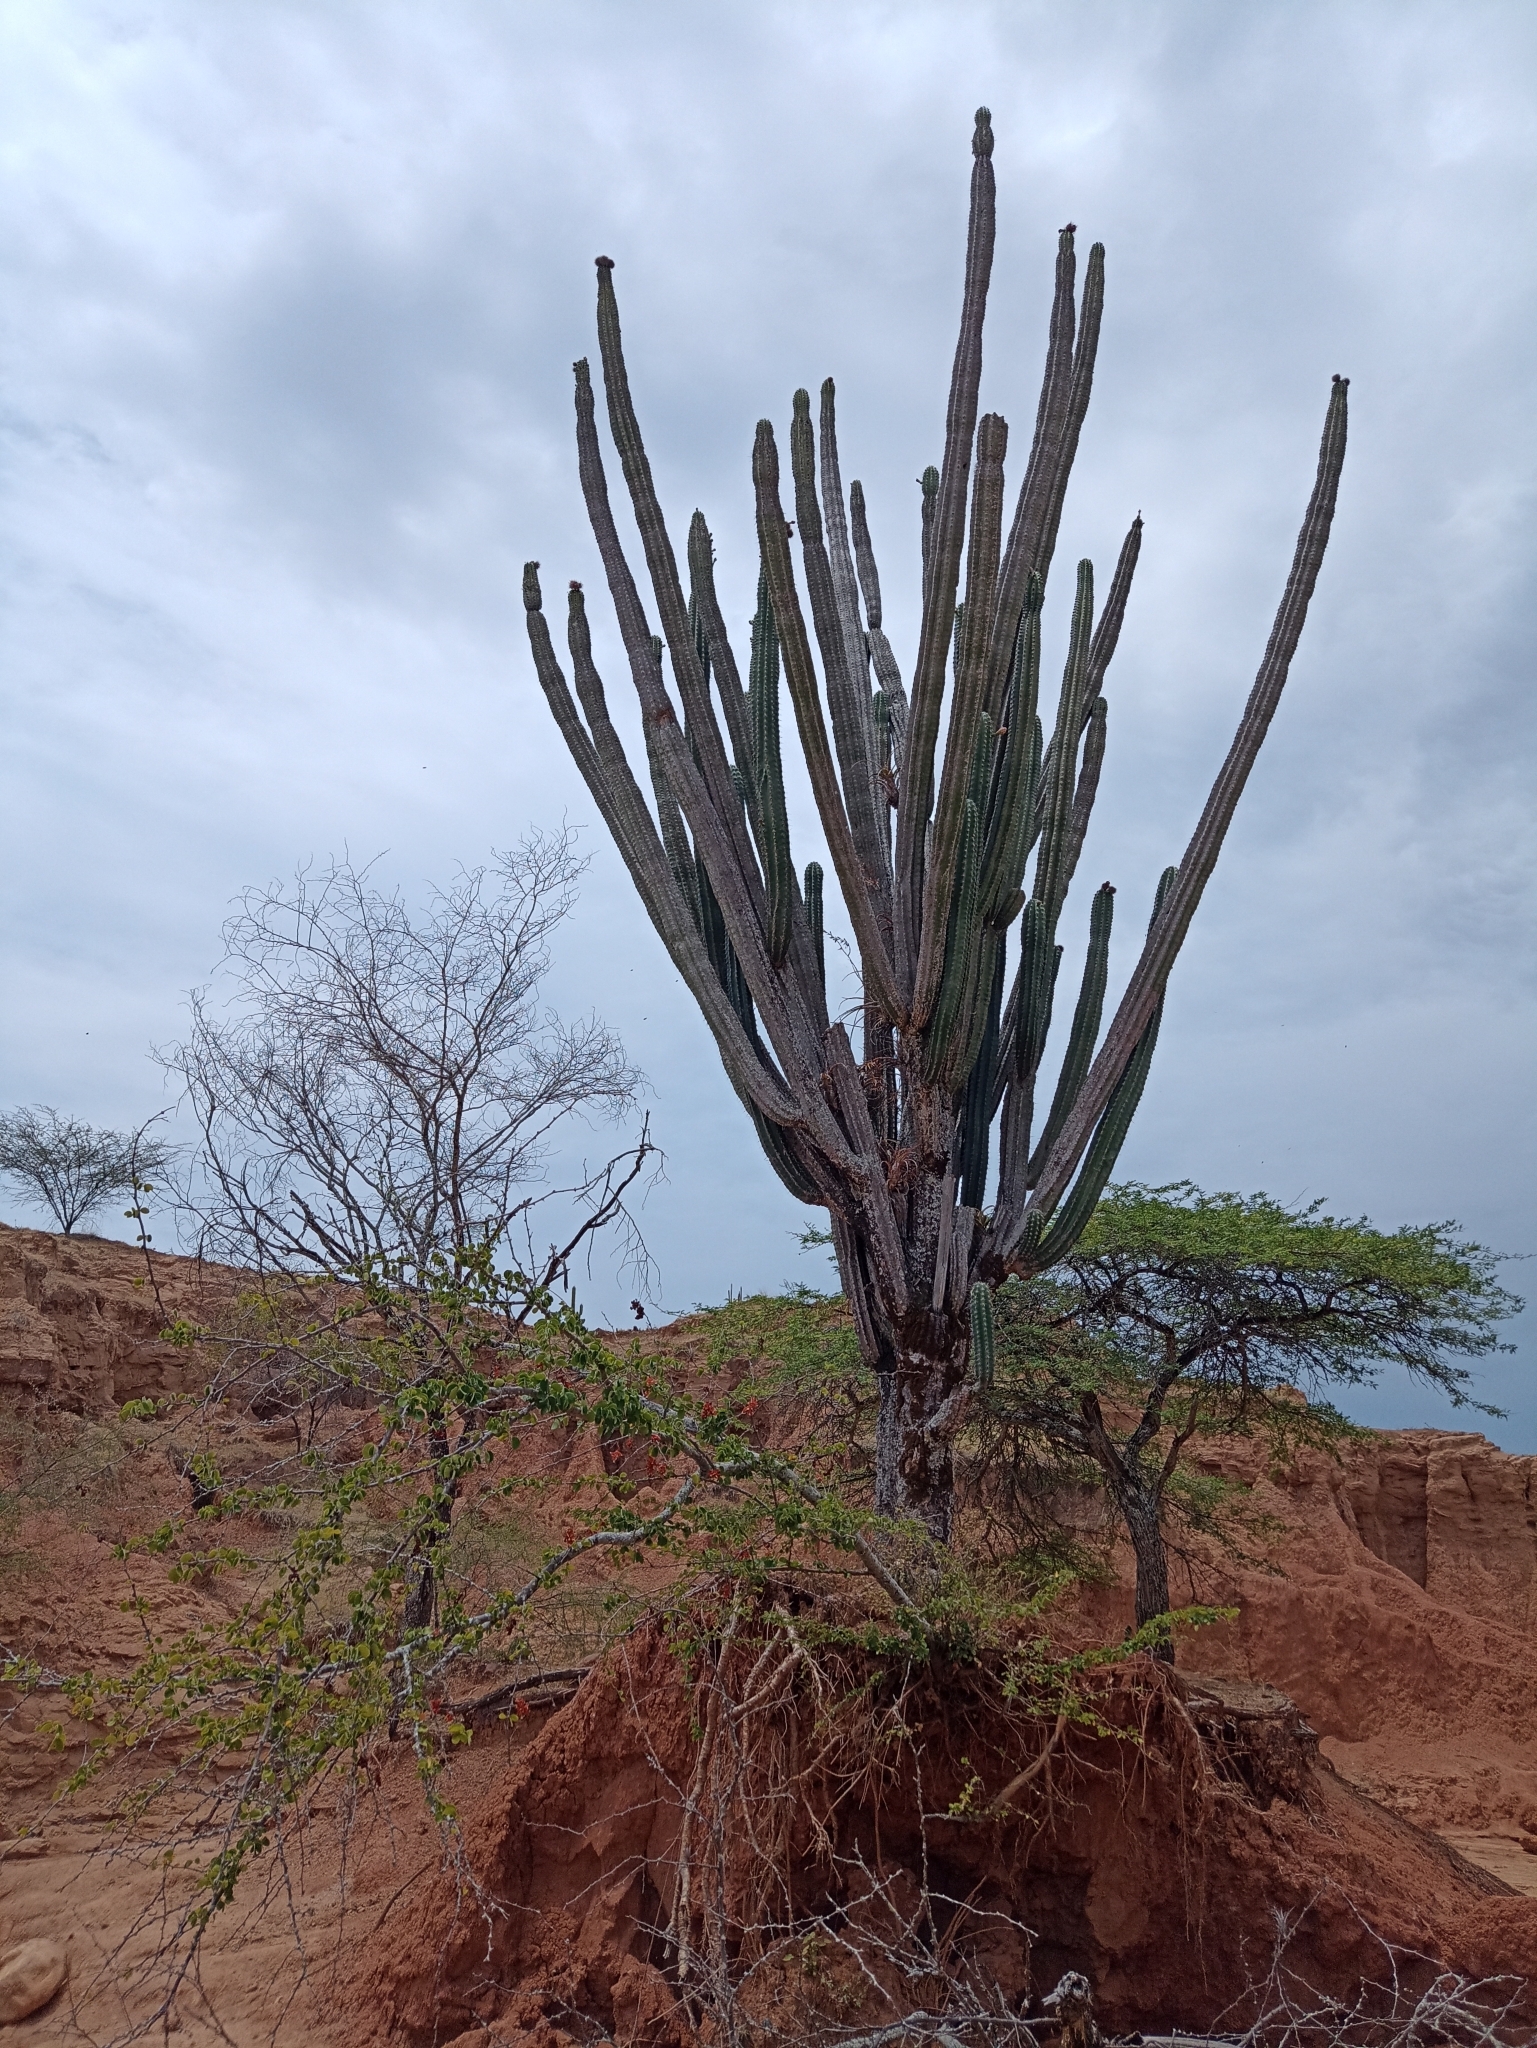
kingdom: Plantae
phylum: Tracheophyta
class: Magnoliopsida
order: Caryophyllales
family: Cactaceae
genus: Stenocereus
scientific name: Stenocereus griseus
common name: Tall candelabra cactus
